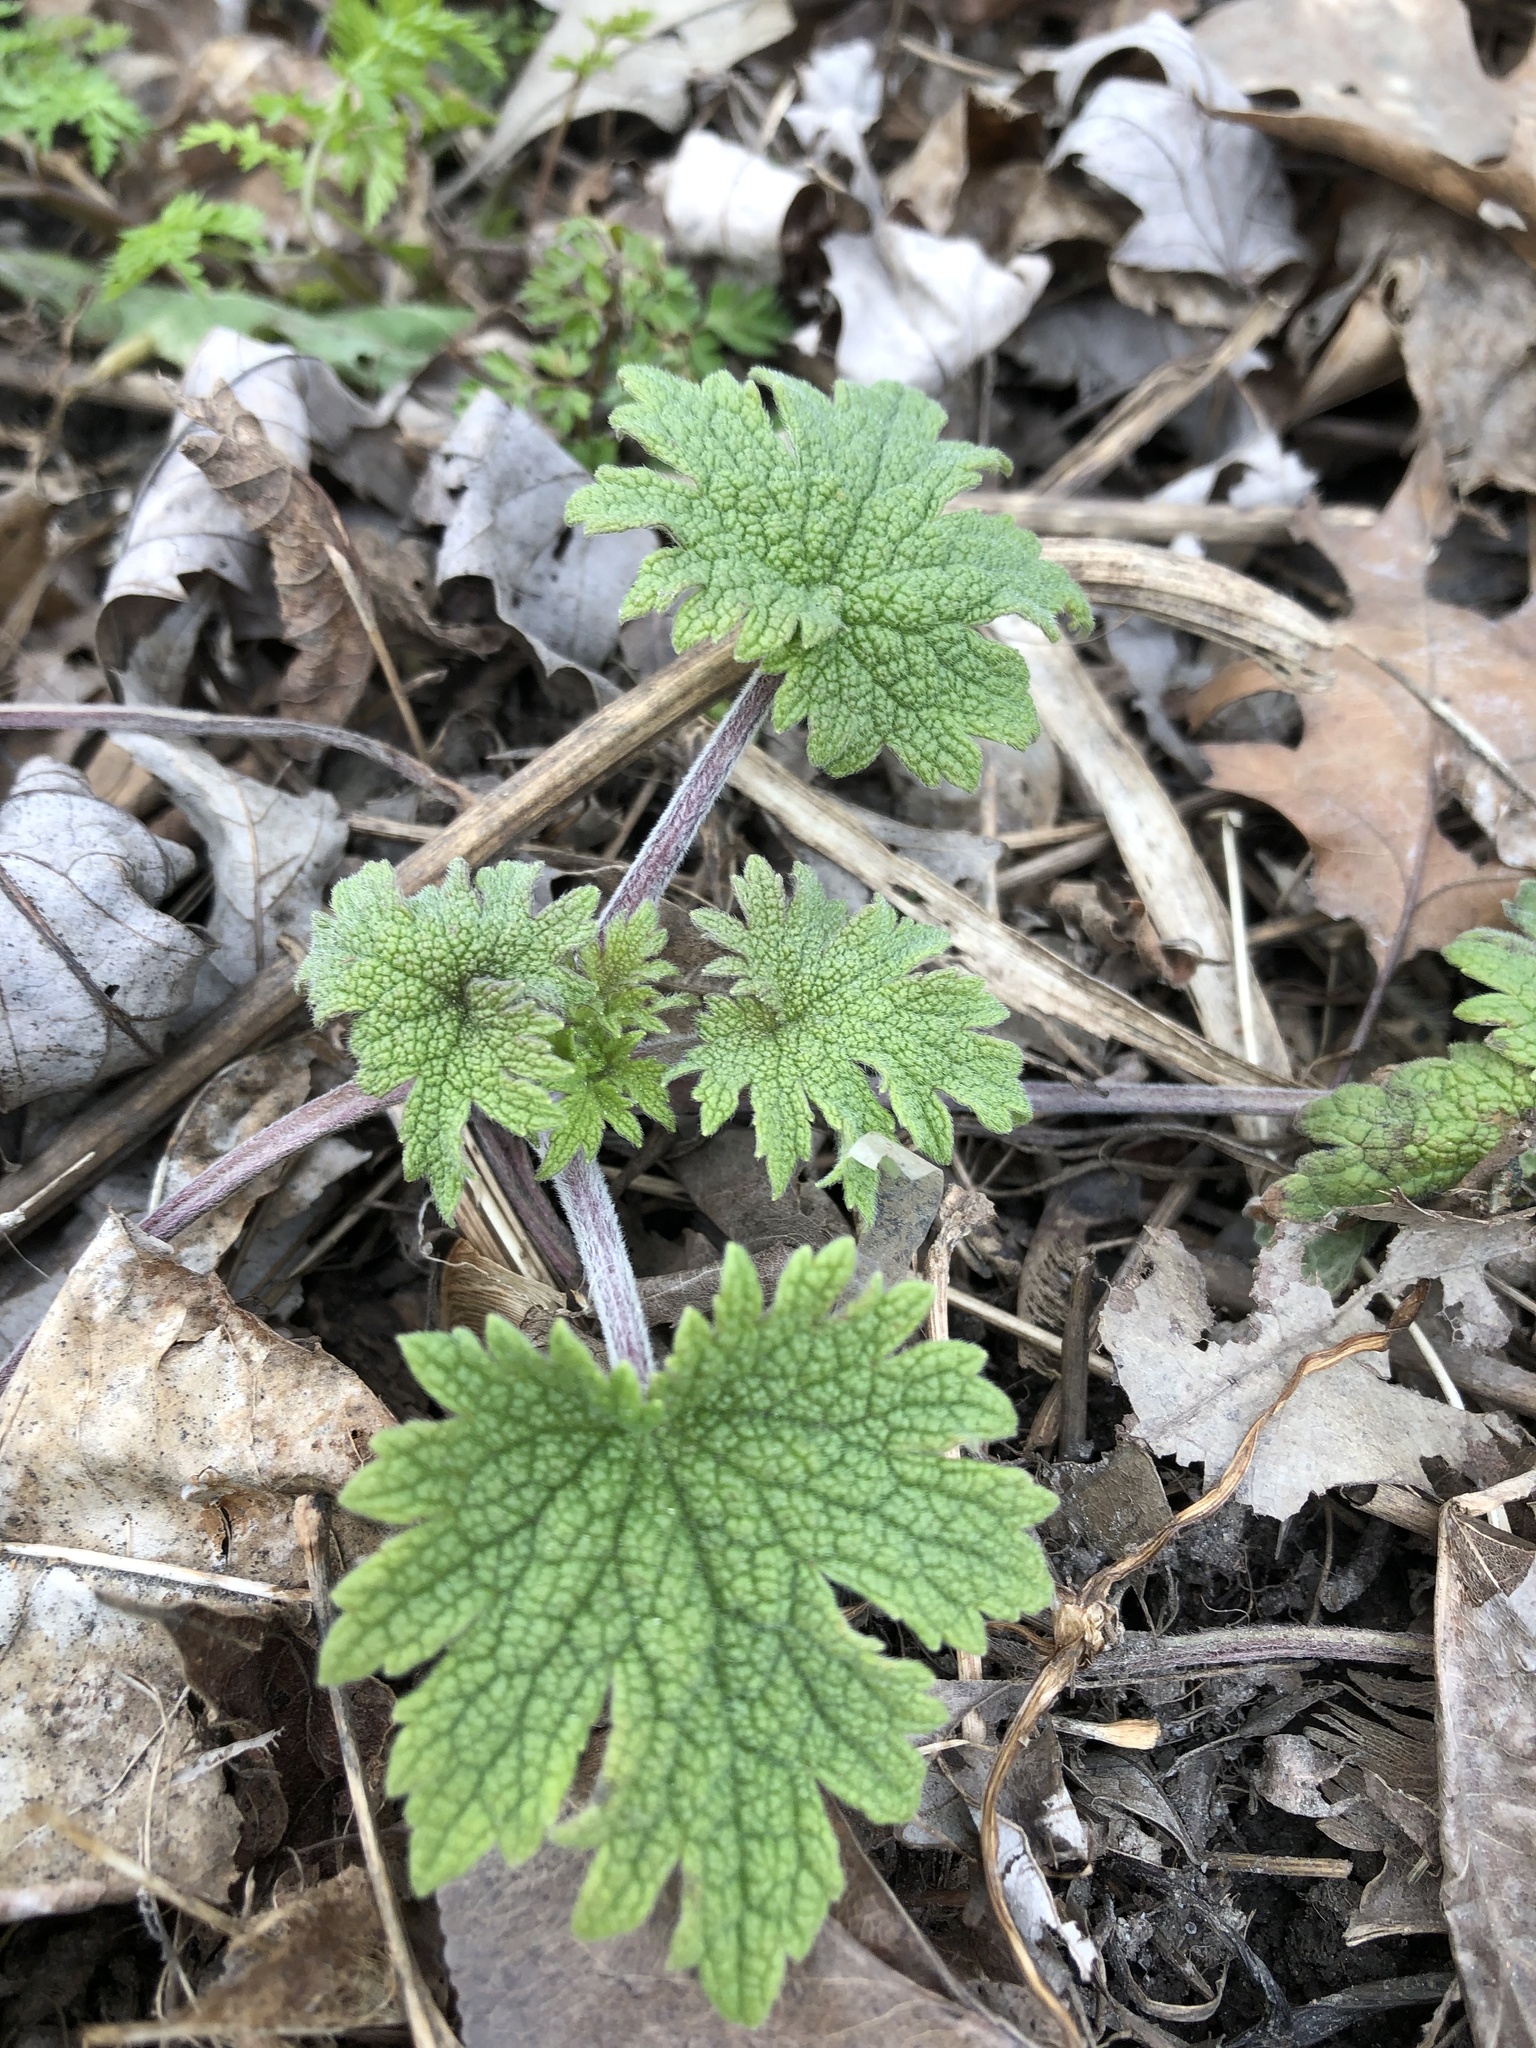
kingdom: Plantae
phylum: Tracheophyta
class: Magnoliopsida
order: Lamiales
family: Lamiaceae
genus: Leonurus
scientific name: Leonurus cardiaca
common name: Motherwort
